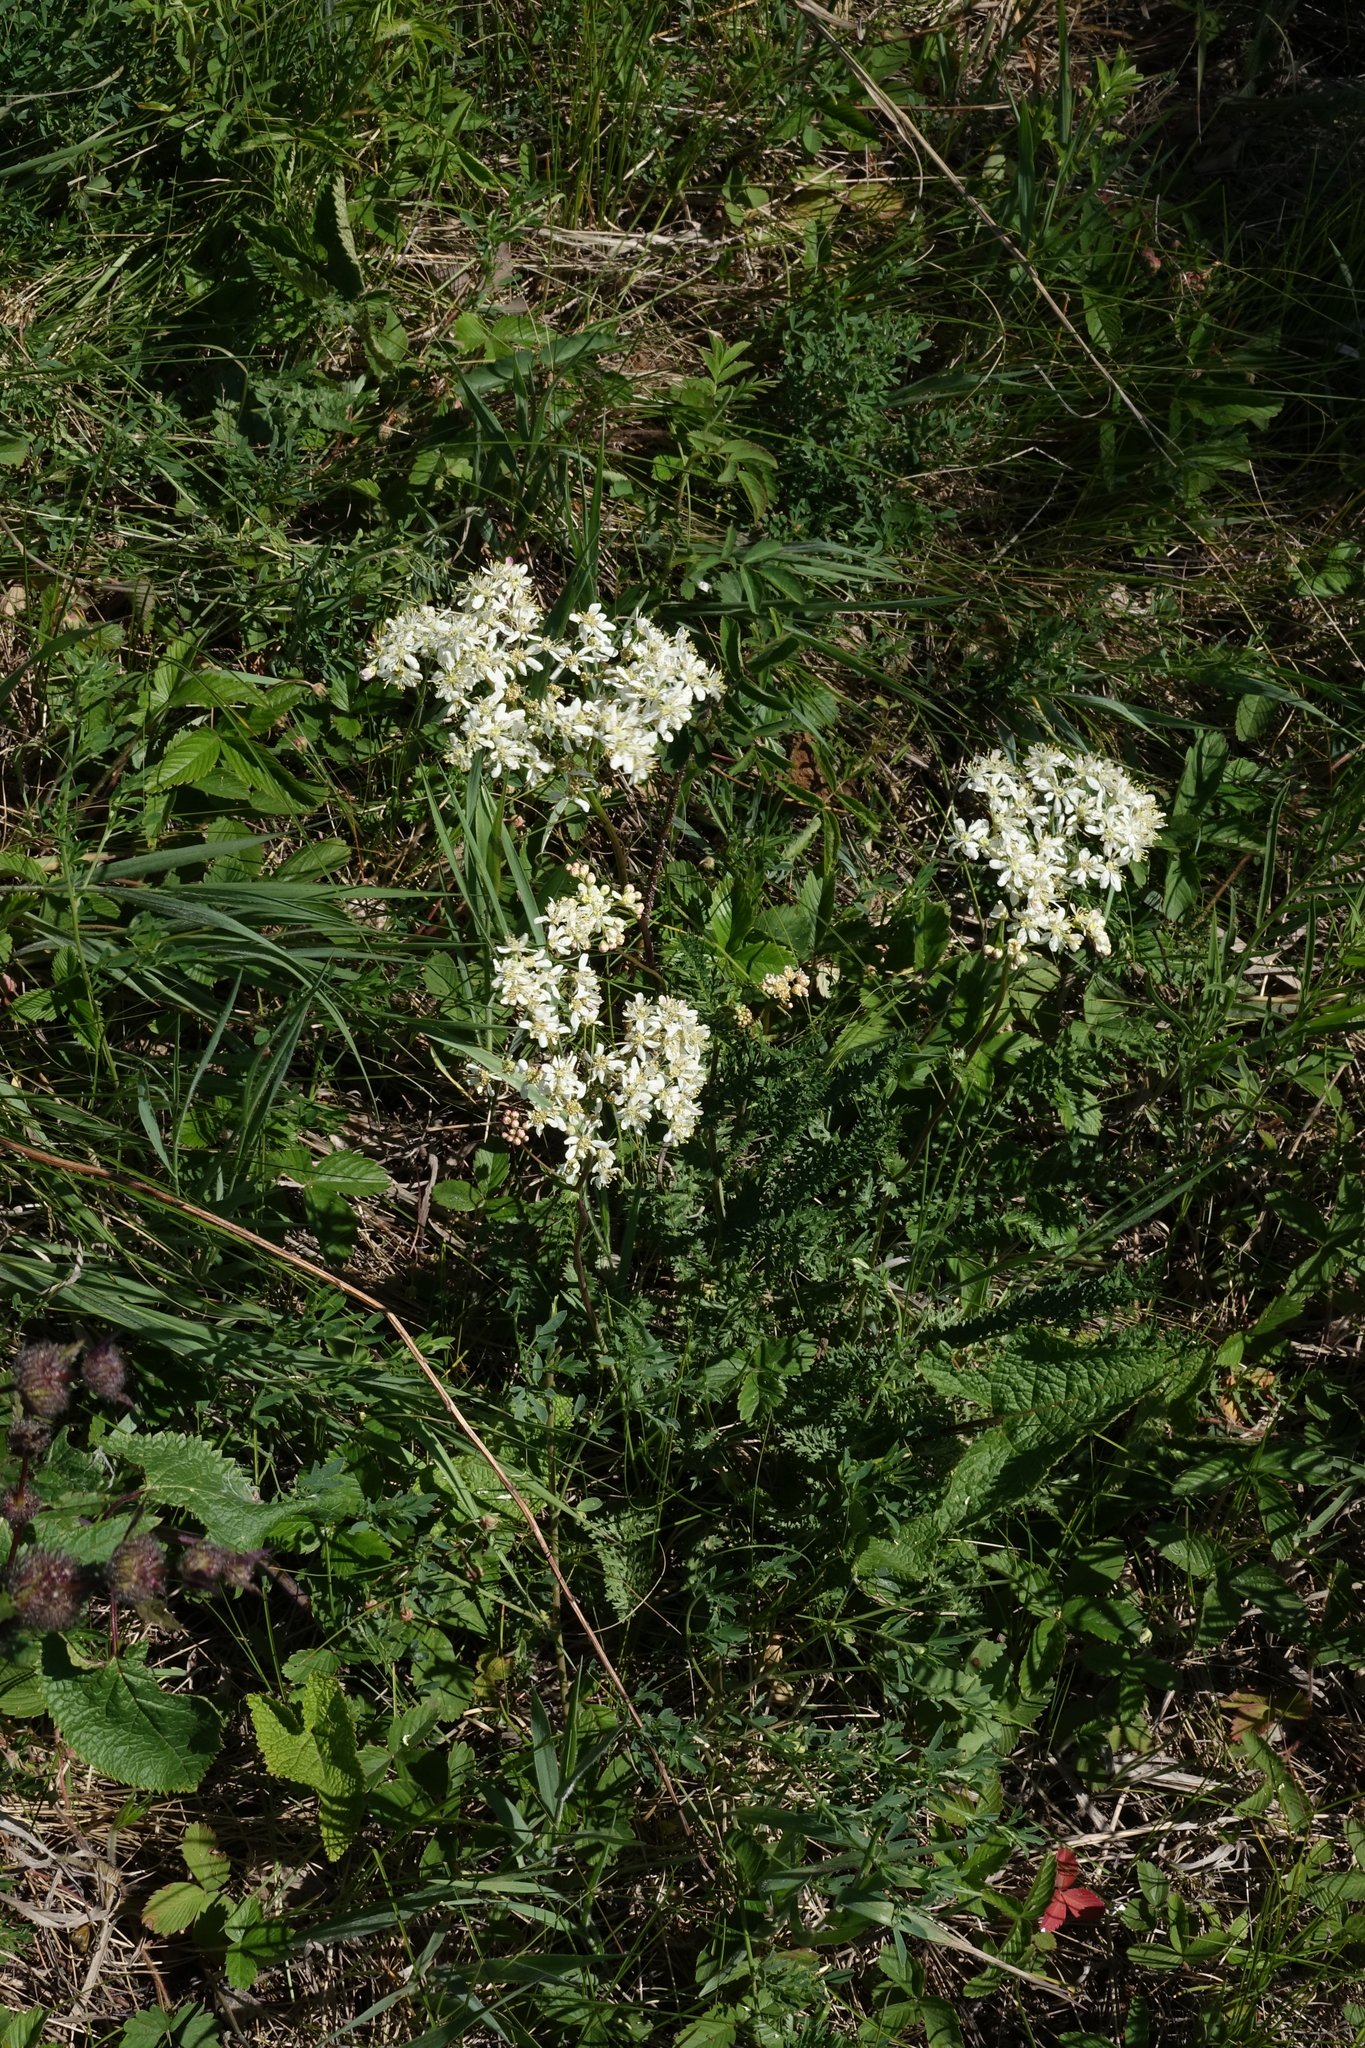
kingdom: Plantae
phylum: Tracheophyta
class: Magnoliopsida
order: Rosales
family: Rosaceae
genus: Filipendula
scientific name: Filipendula vulgaris
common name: Dropwort
